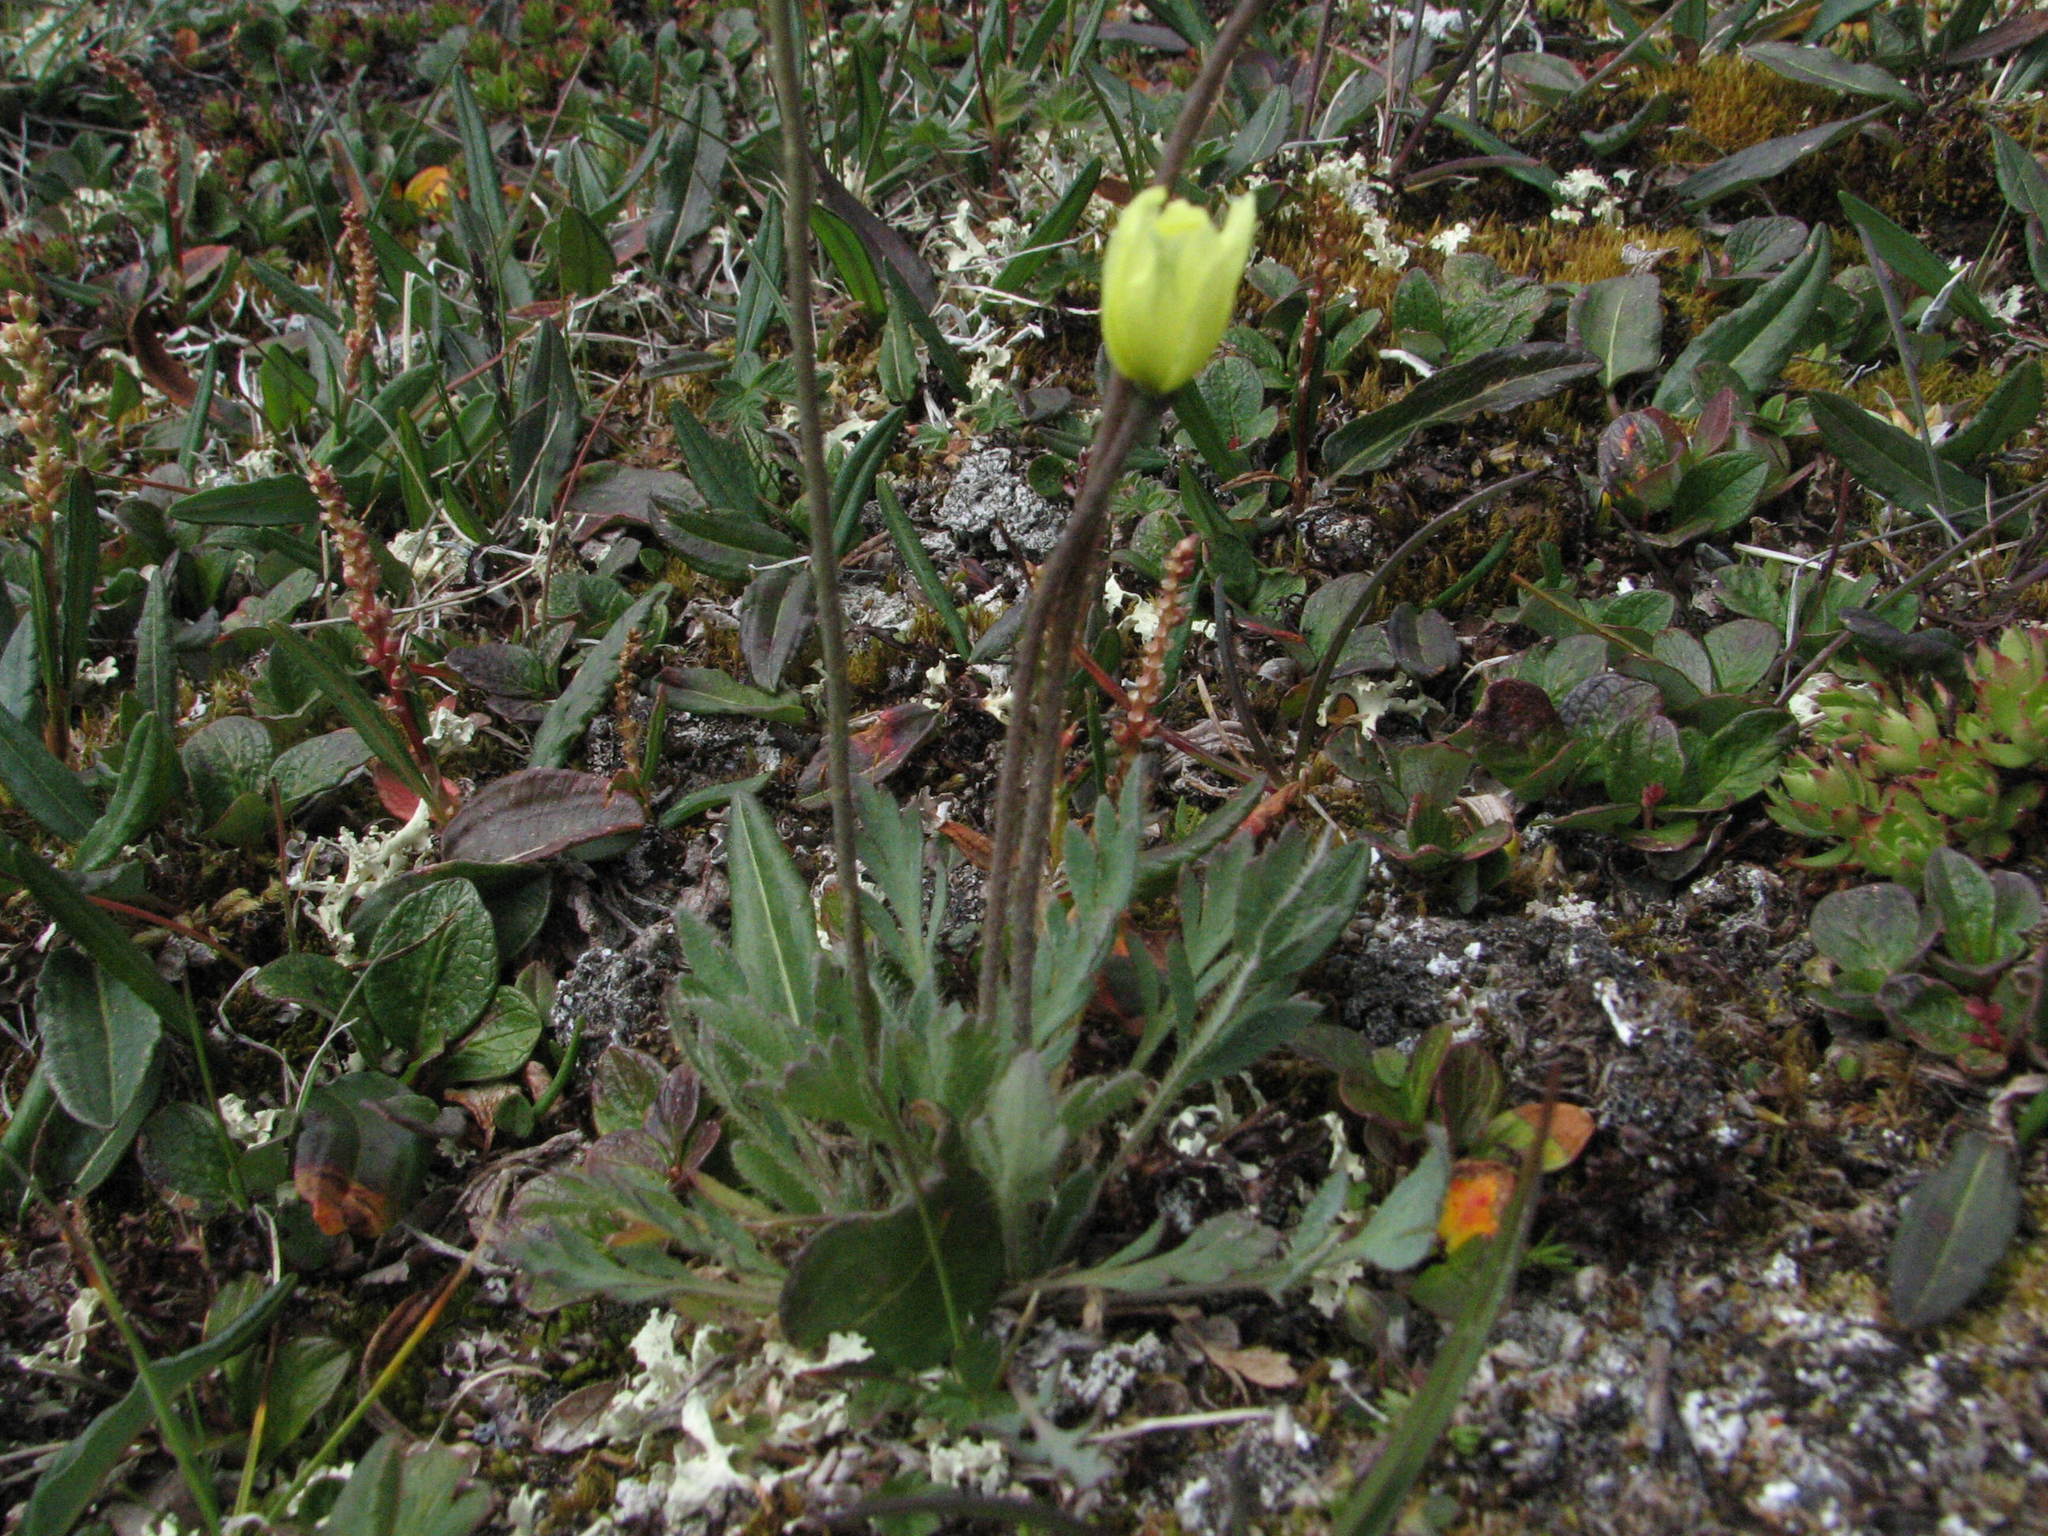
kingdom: Plantae
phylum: Tracheophyta
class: Magnoliopsida
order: Ranunculales
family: Papaveraceae
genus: Papaver
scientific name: Papaver radicatum
